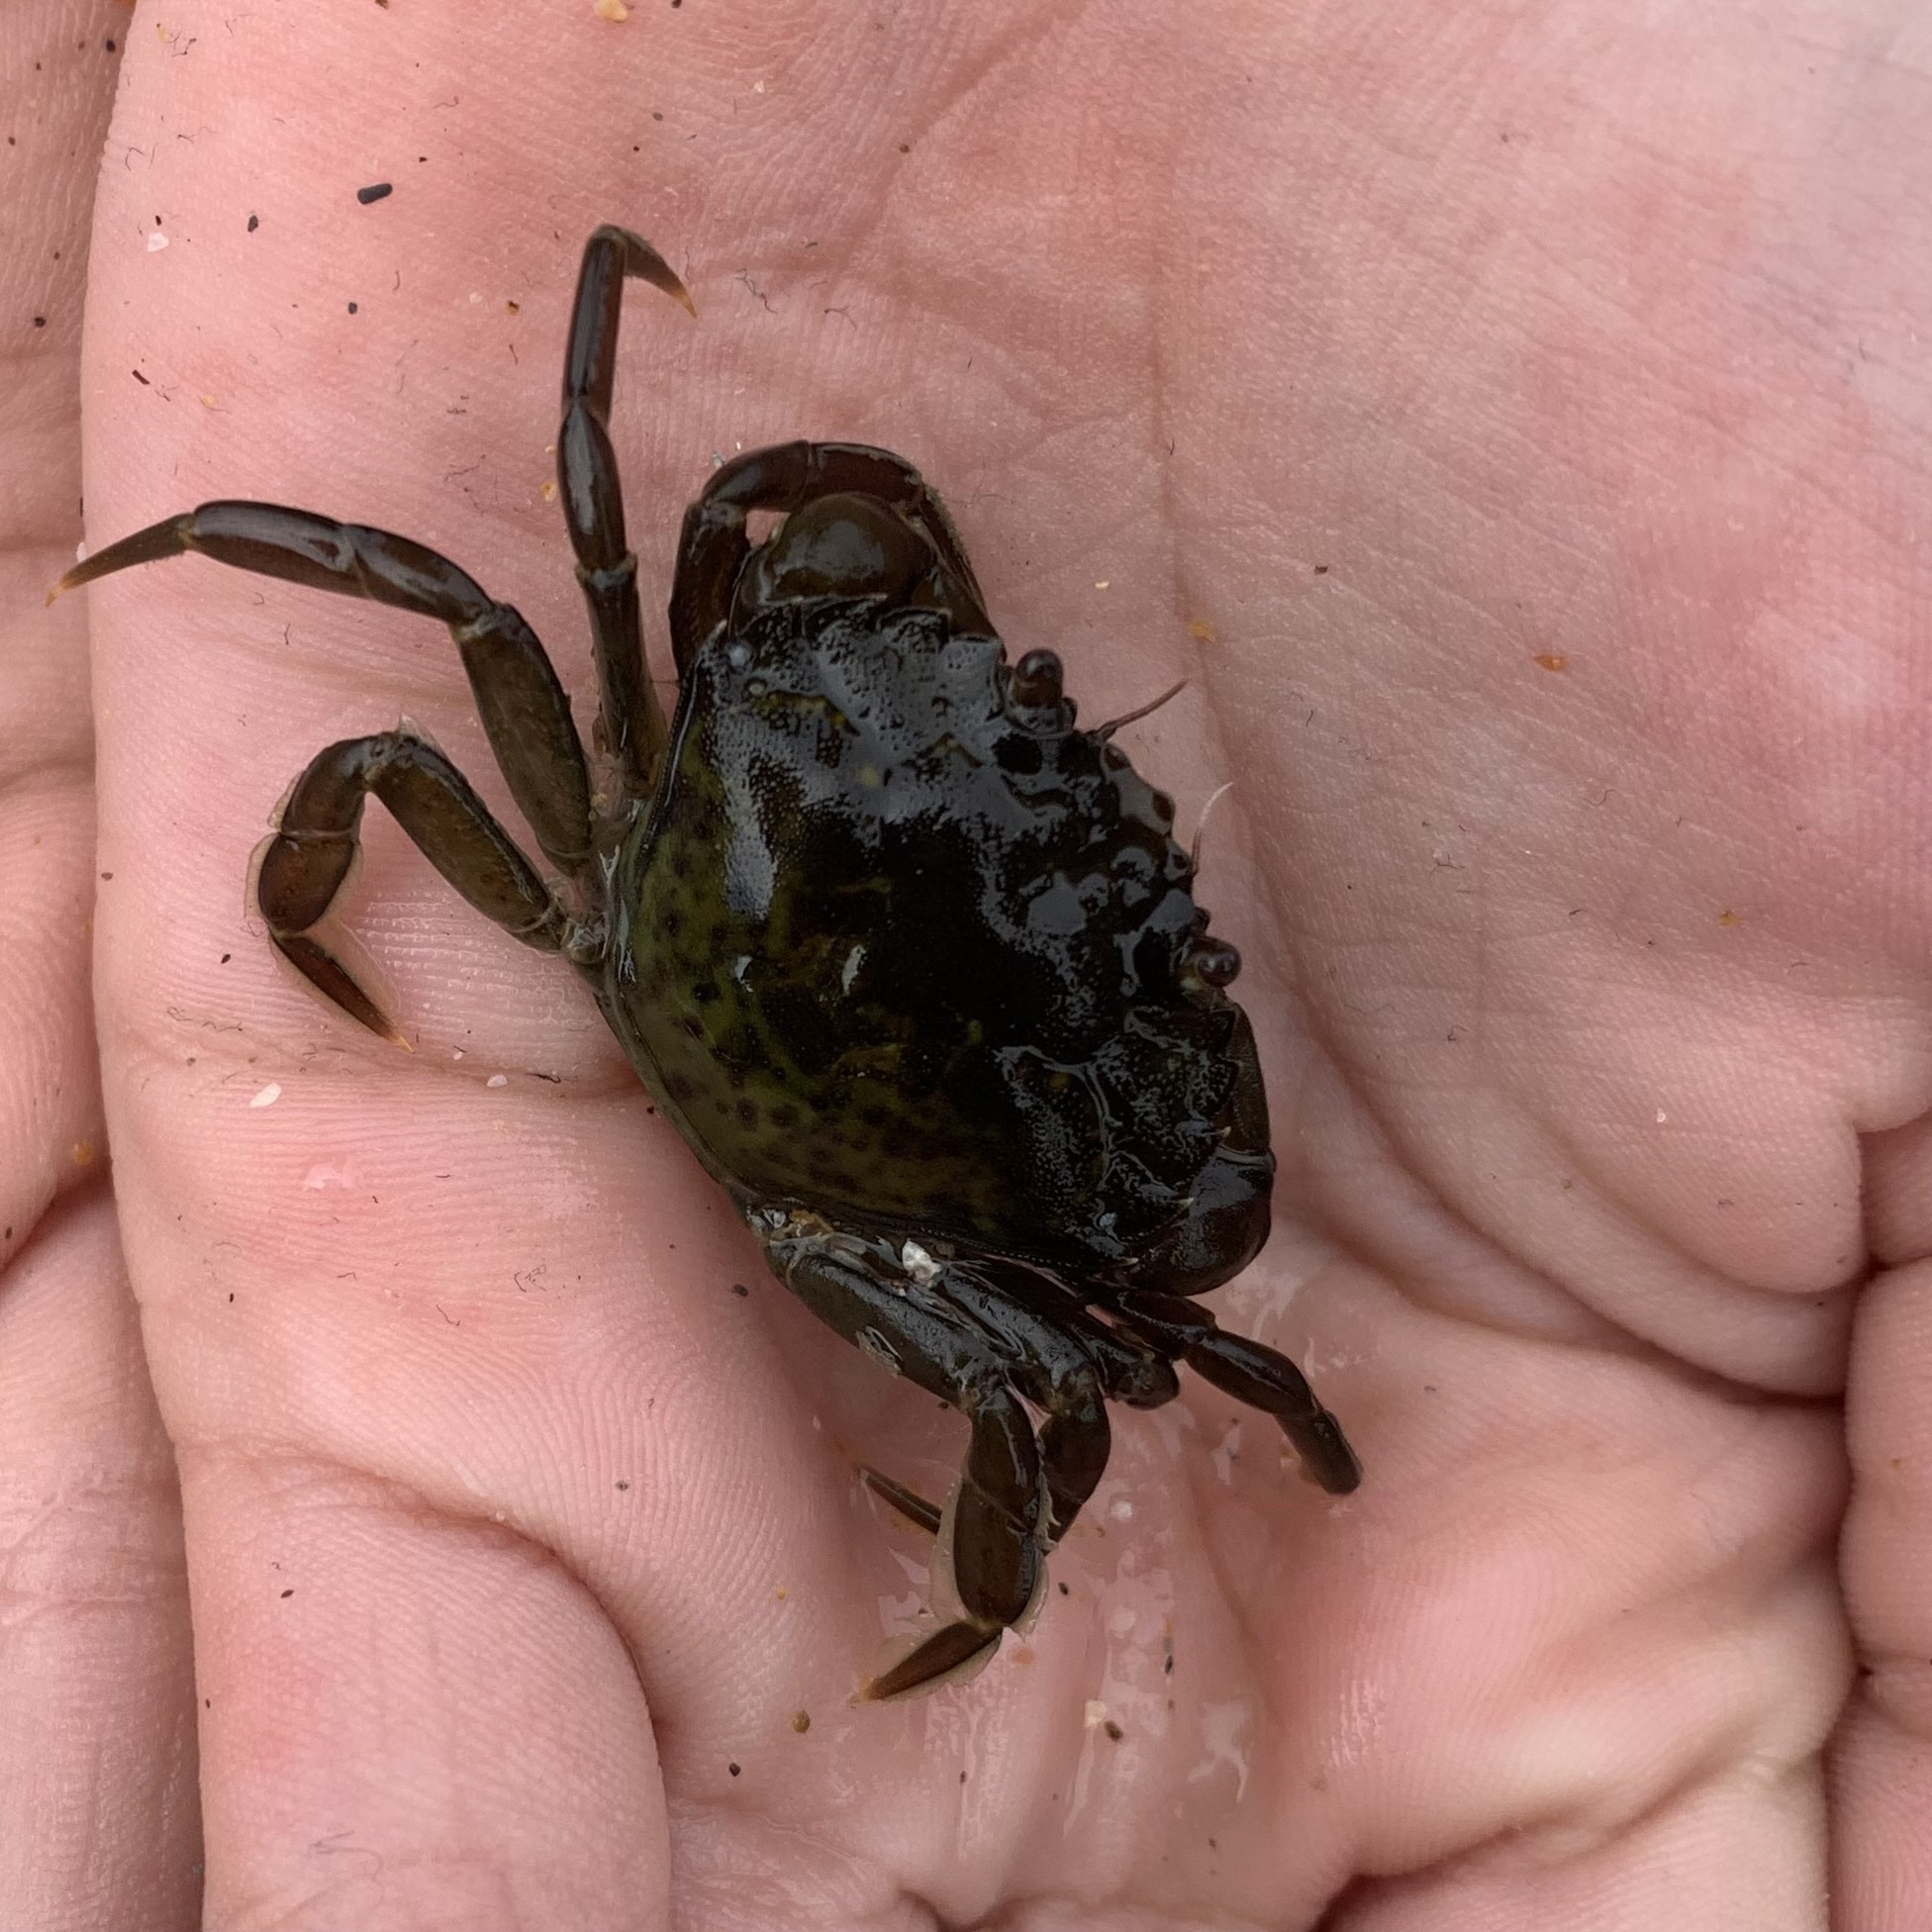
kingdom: Animalia
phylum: Arthropoda
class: Malacostraca
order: Decapoda
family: Carcinidae
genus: Carcinus
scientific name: Carcinus maenas
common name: European green crab
